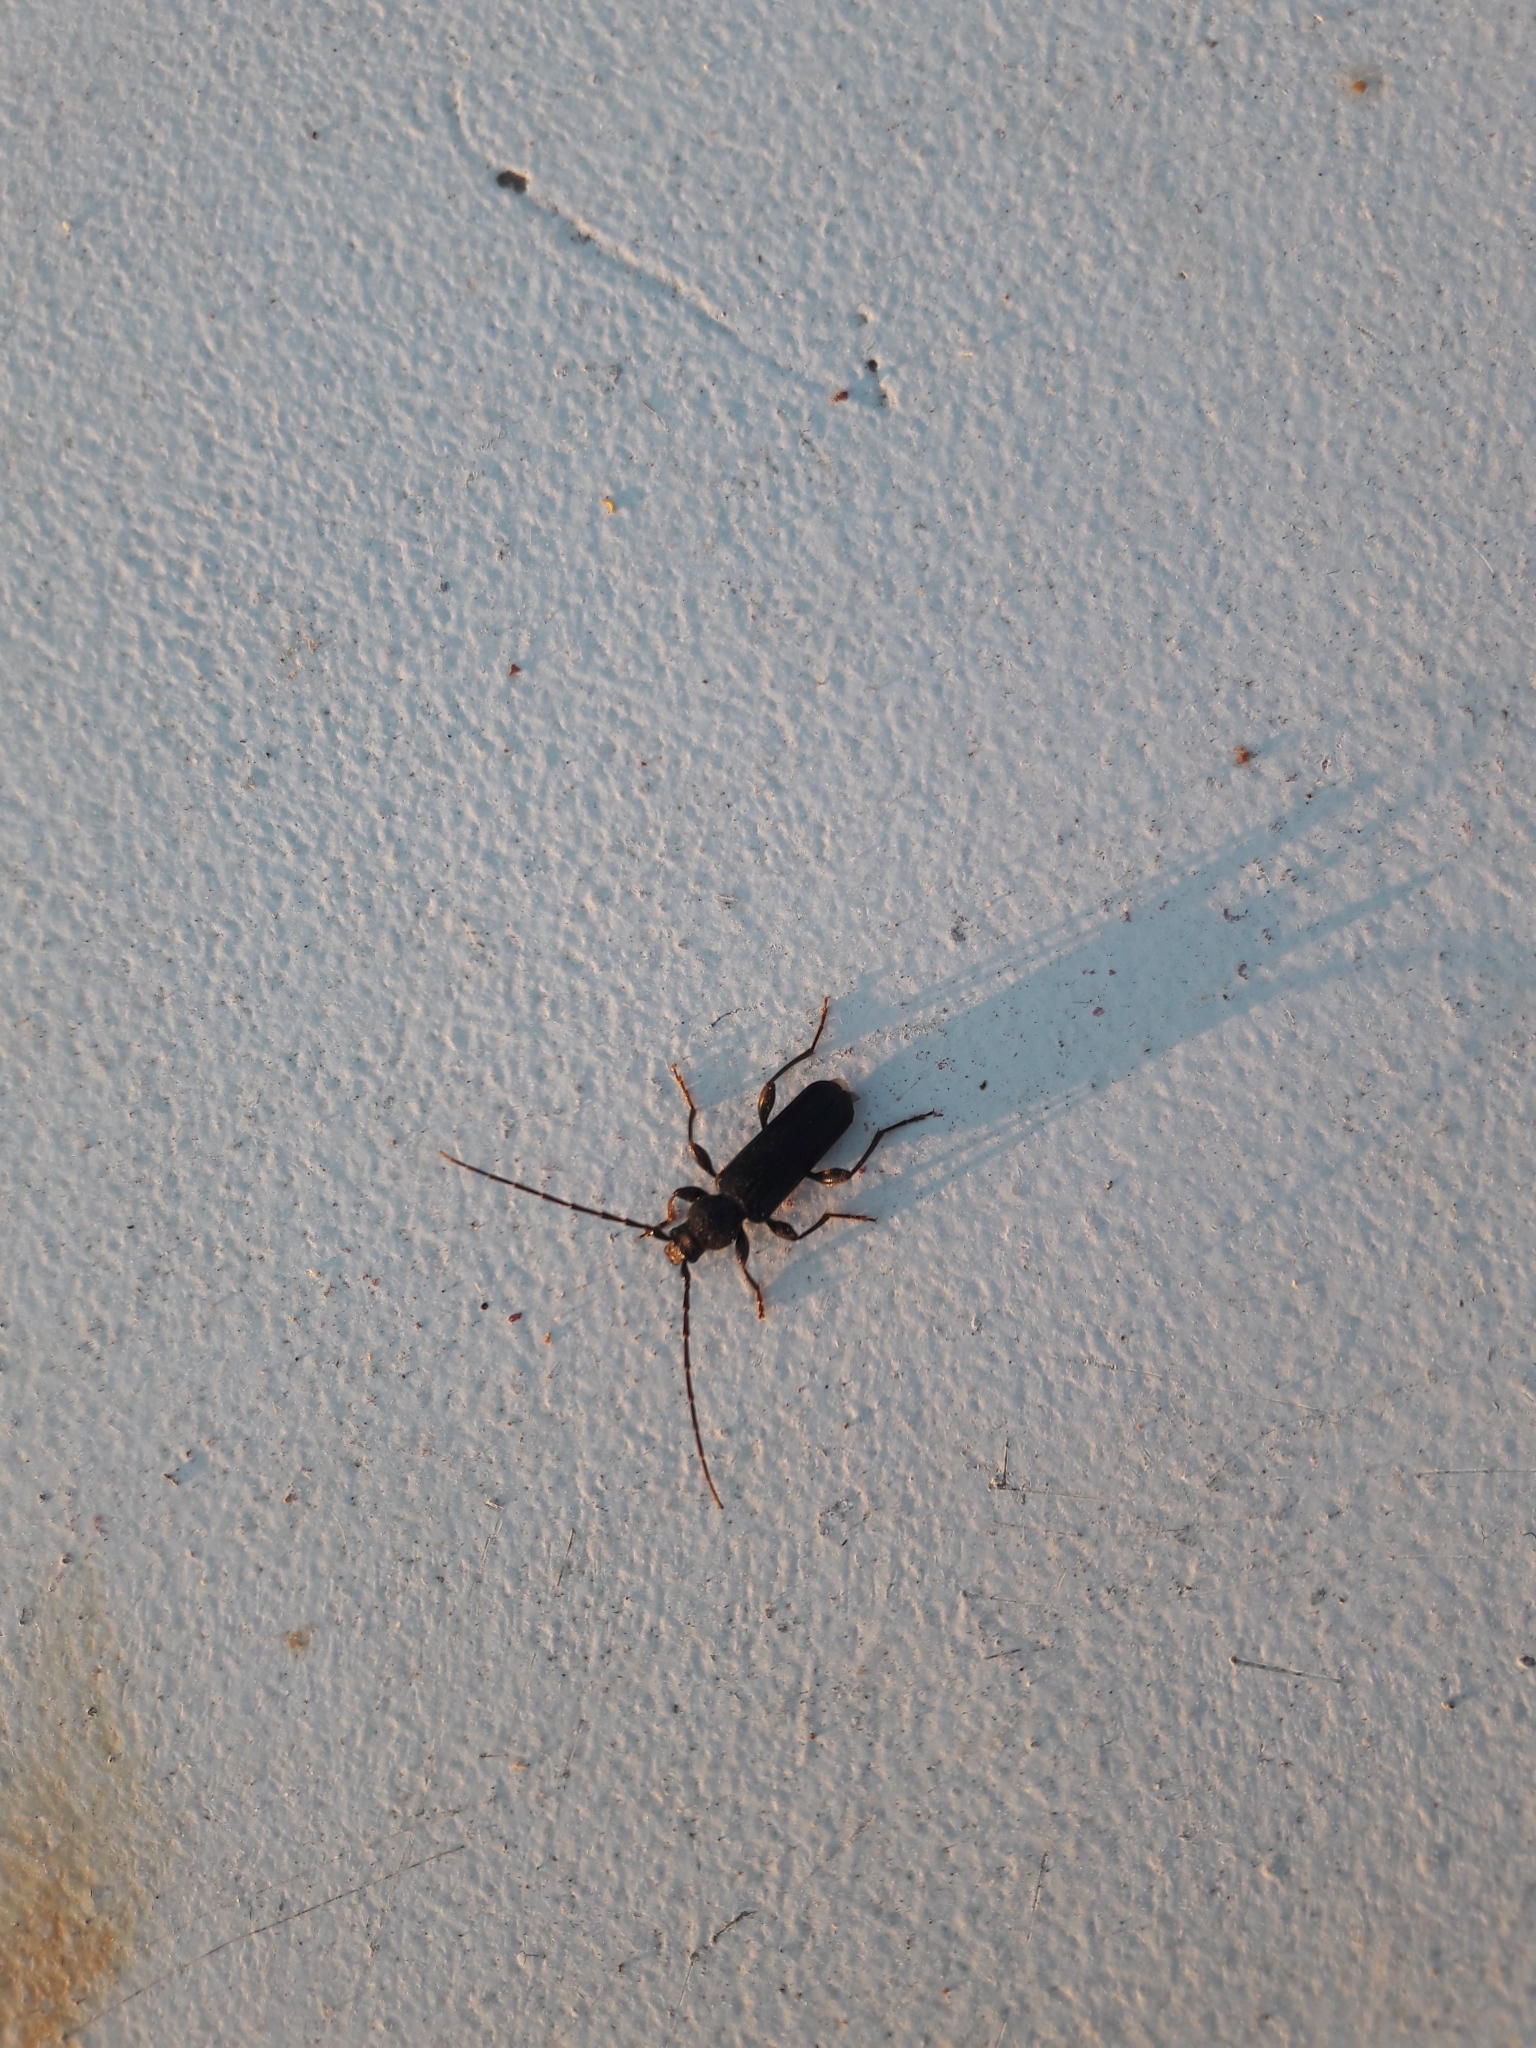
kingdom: Animalia
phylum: Arthropoda
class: Insecta
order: Coleoptera
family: Cerambycidae
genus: Phymatodes
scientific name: Phymatodes testaceus
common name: Long-horned beetle
